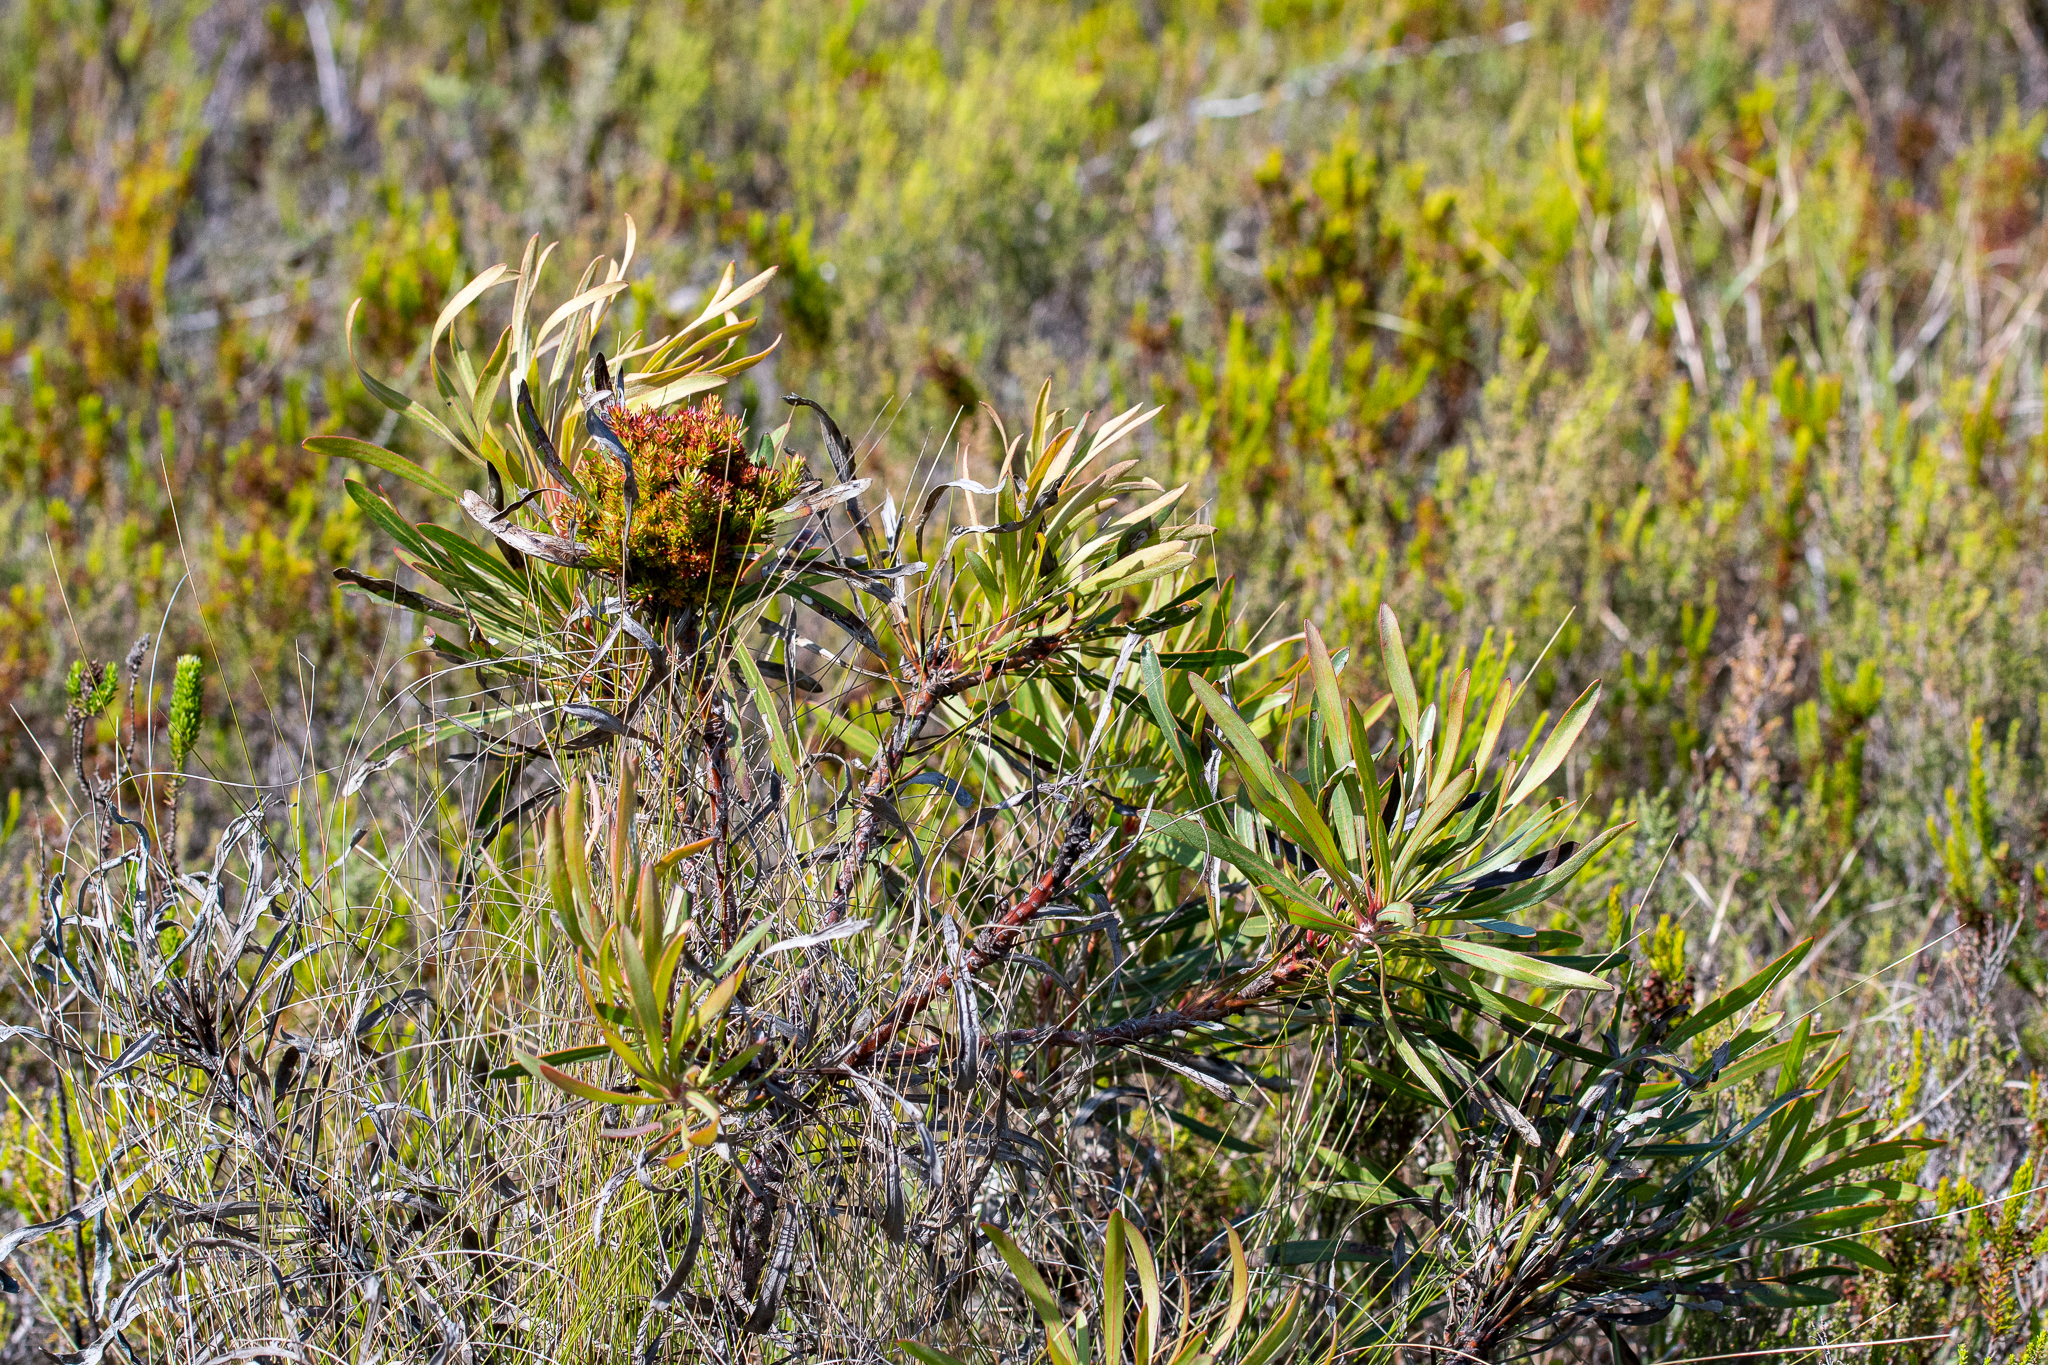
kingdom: Plantae
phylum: Tracheophyta
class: Magnoliopsida
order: Proteales
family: Proteaceae
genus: Protea
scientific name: Protea longifolia
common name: Long-leaf sugarbush
